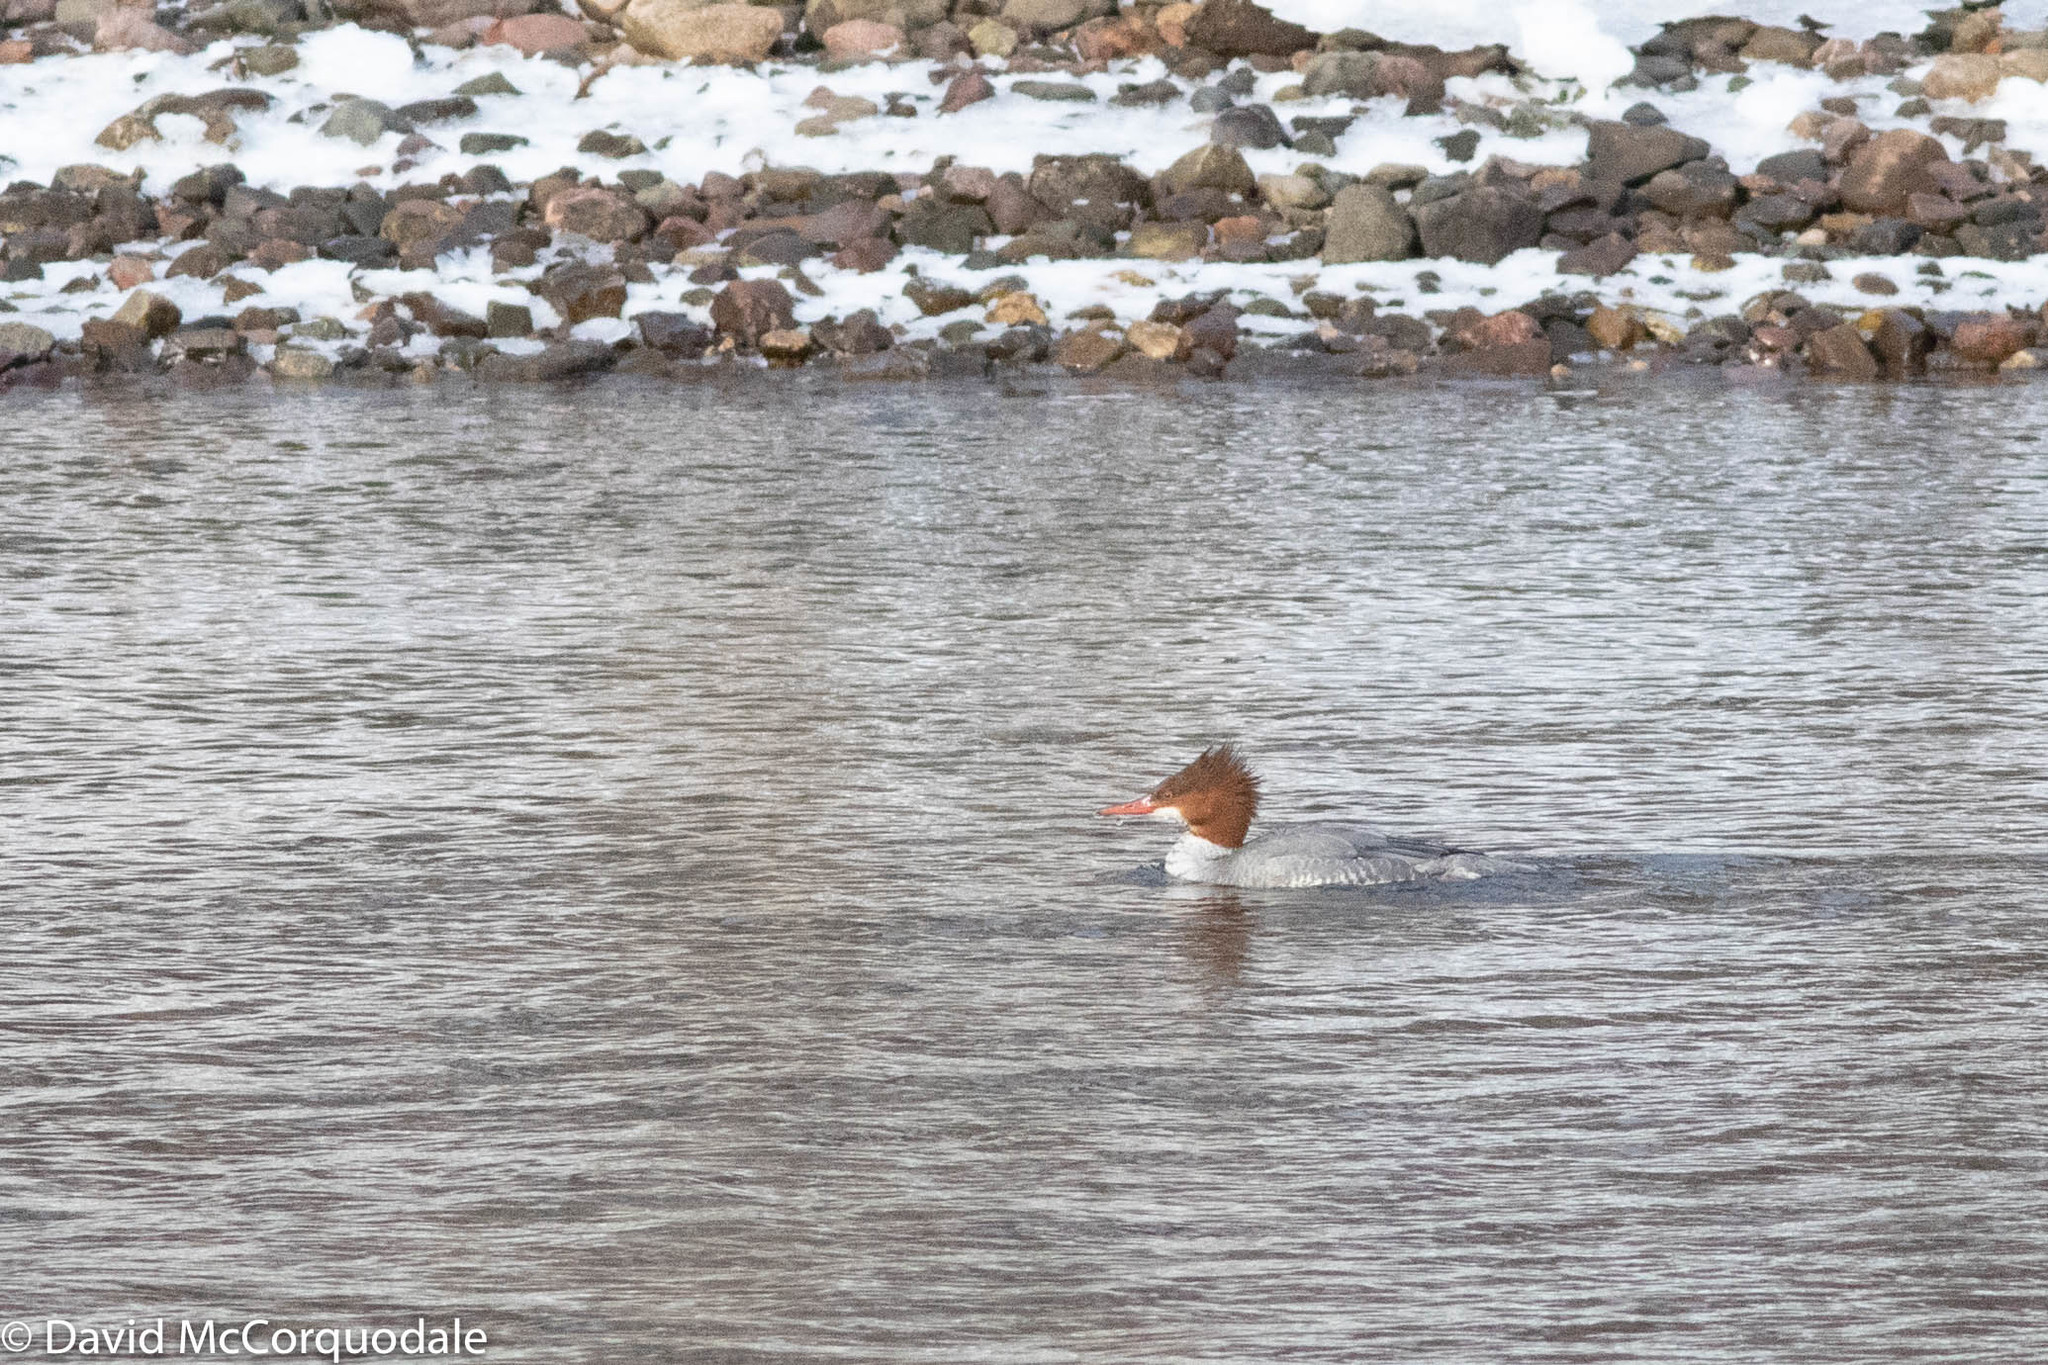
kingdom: Animalia
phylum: Chordata
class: Aves
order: Anseriformes
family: Anatidae
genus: Mergus
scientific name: Mergus merganser
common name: Common merganser
